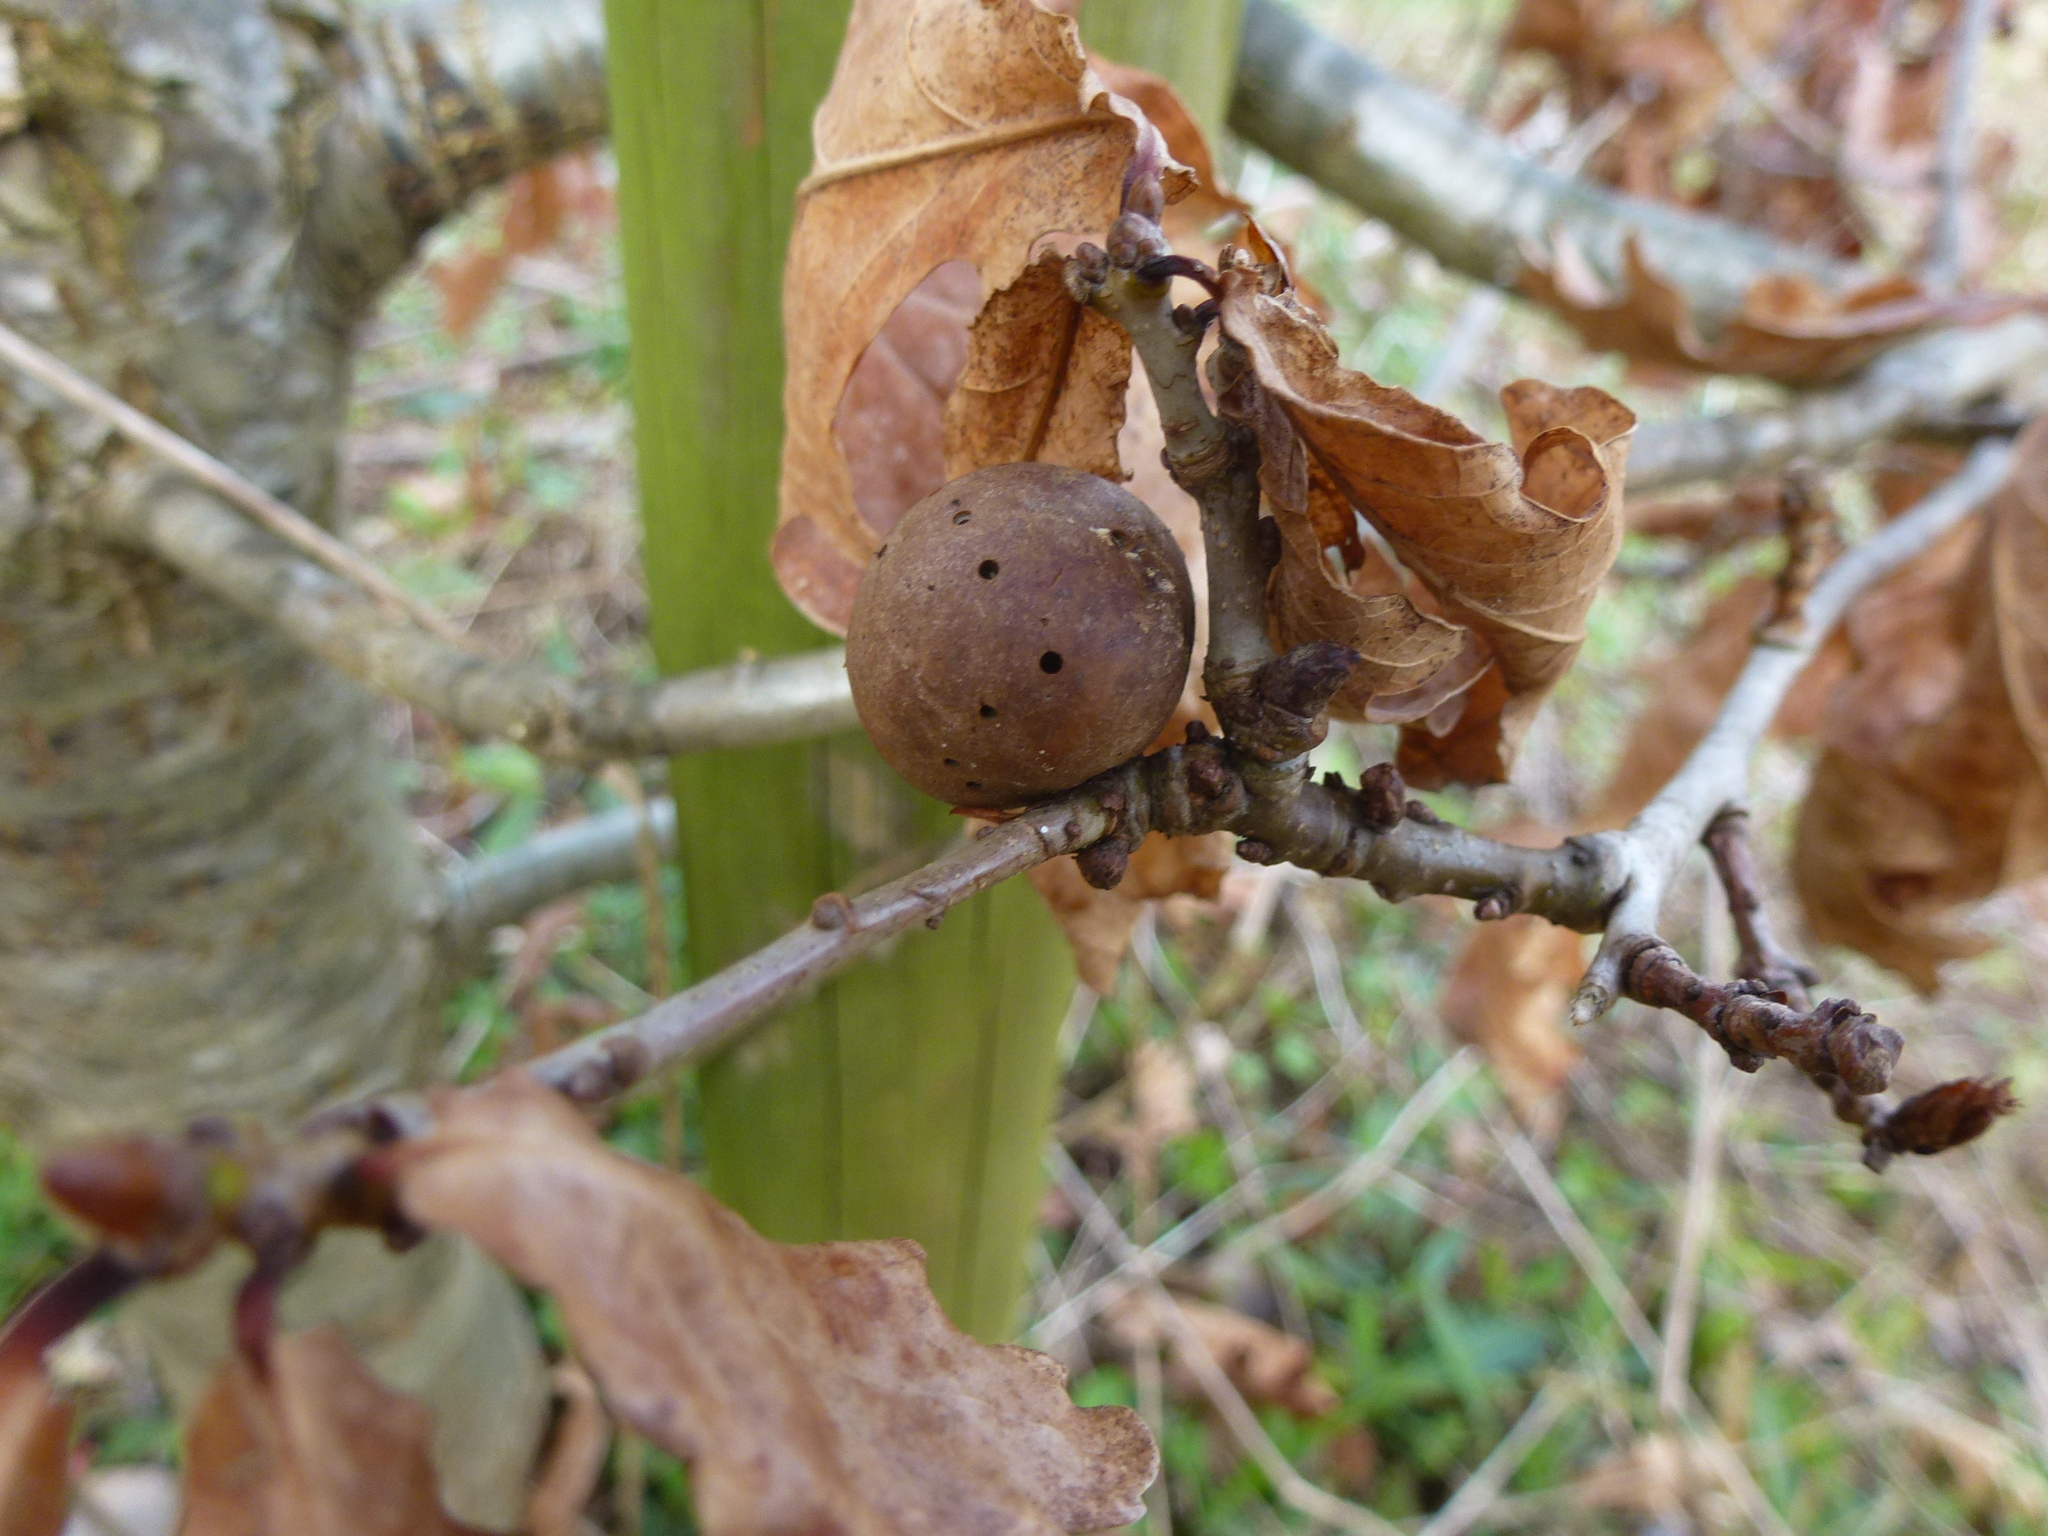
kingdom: Animalia
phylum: Arthropoda
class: Insecta
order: Hymenoptera
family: Cynipidae
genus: Andricus
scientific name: Andricus kollari
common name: Marble gall
